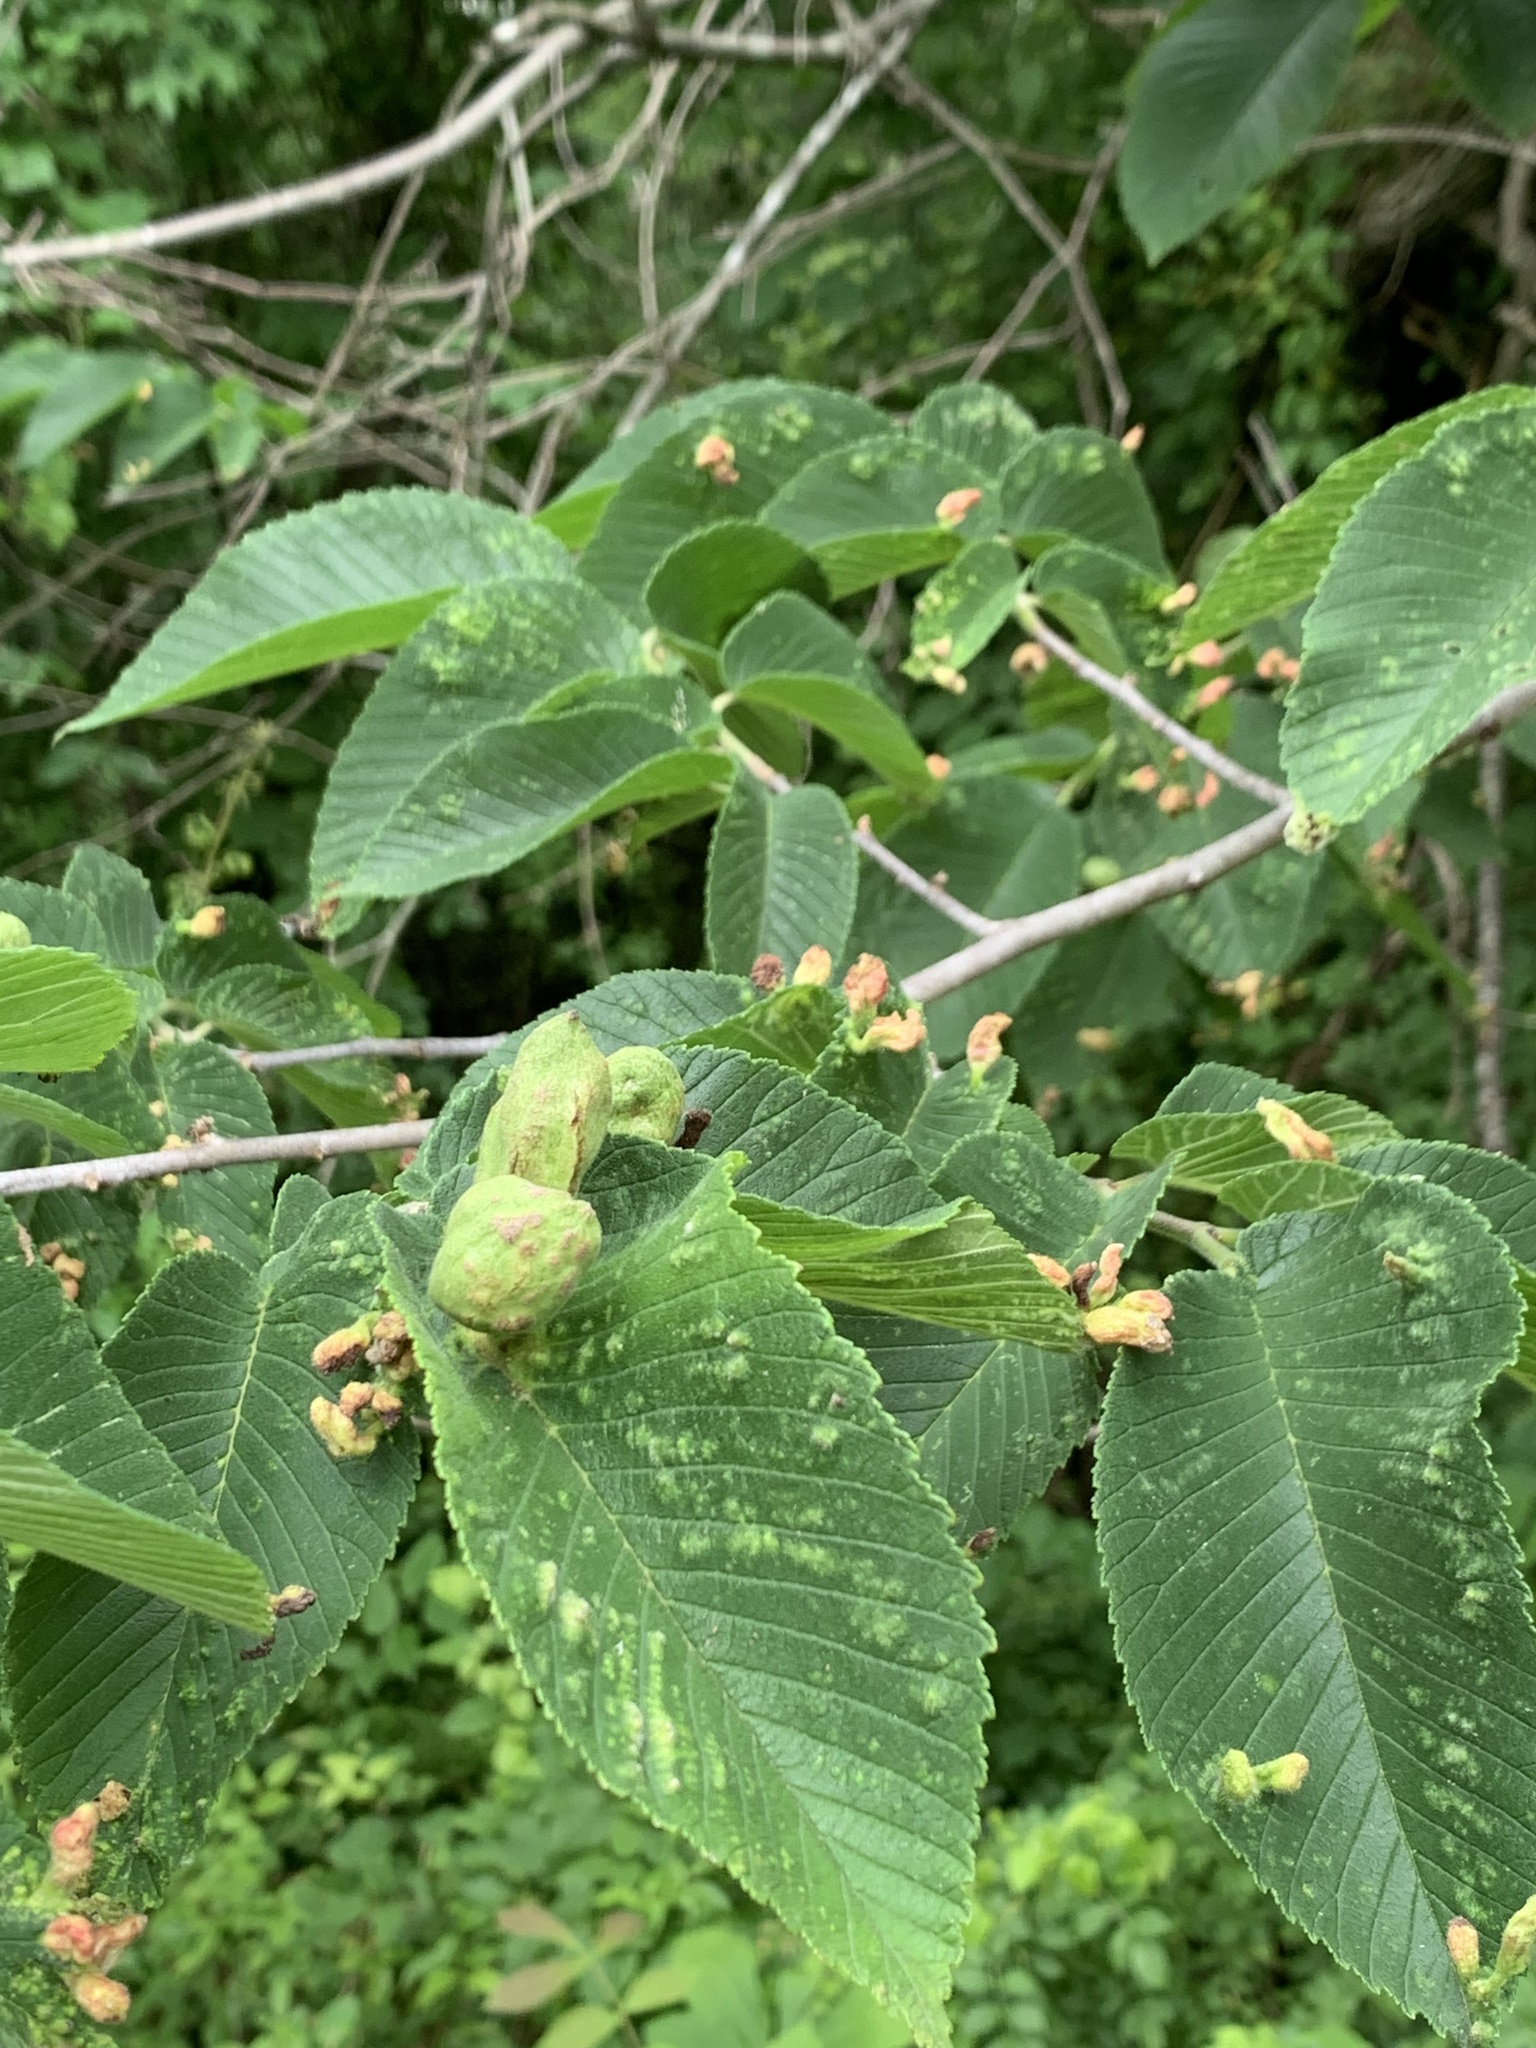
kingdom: Animalia
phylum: Arthropoda
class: Insecta
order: Hemiptera
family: Aphididae
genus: Kaltenbachiella
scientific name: Kaltenbachiella ulmifusa
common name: Elm pouchgall aphid
